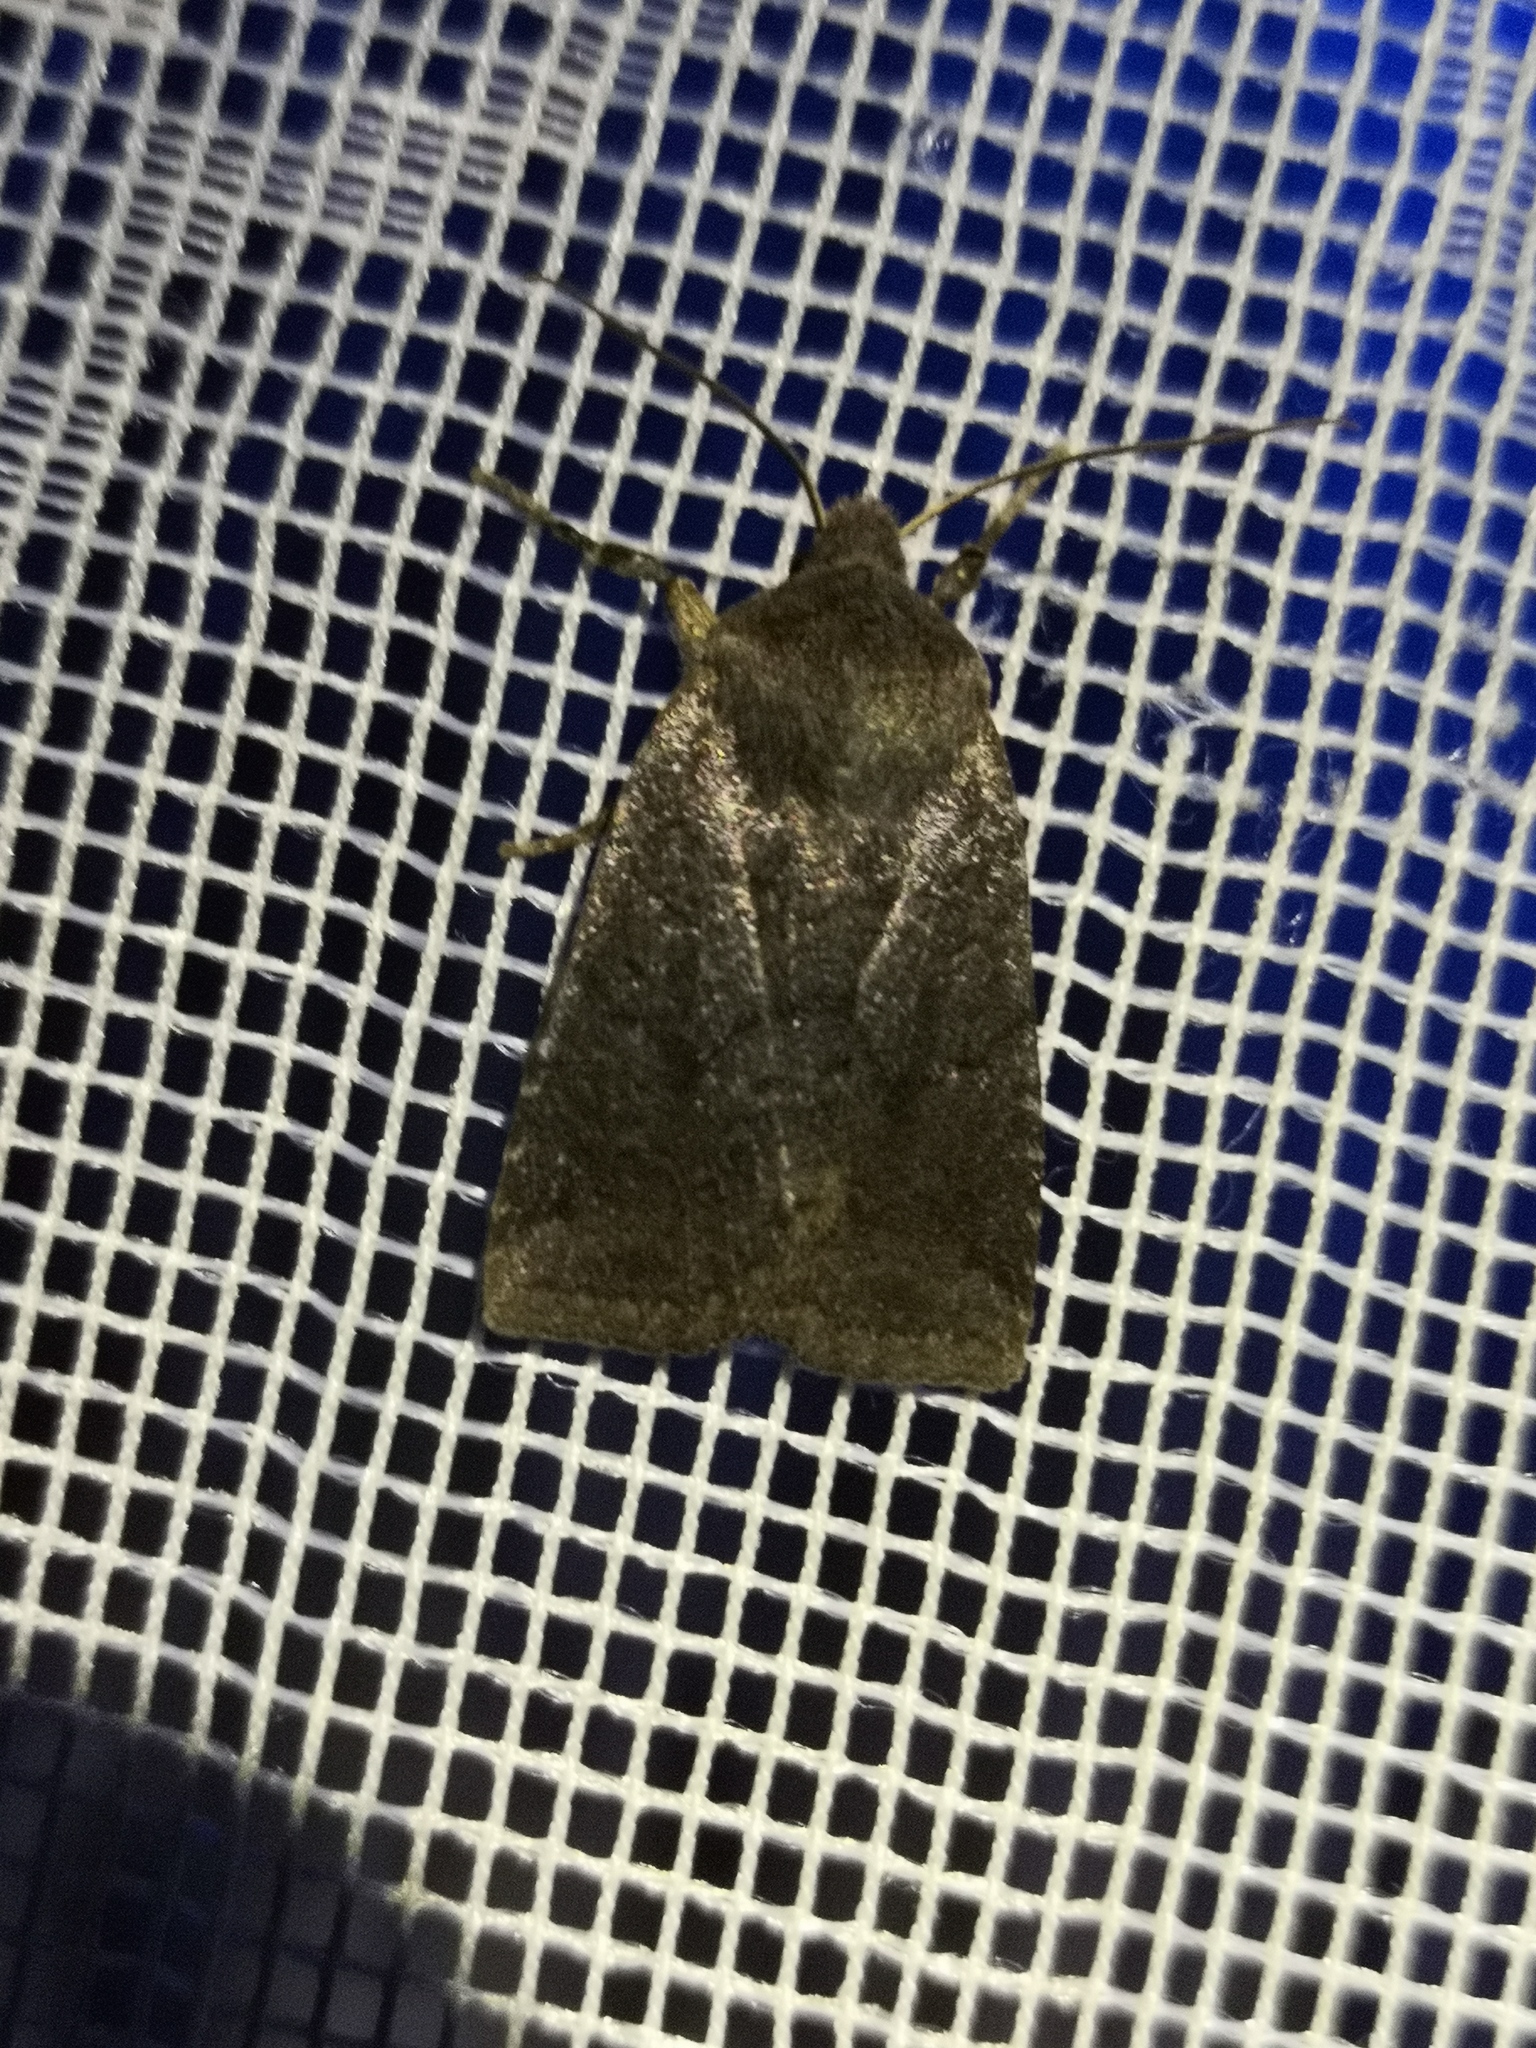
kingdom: Animalia
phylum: Arthropoda
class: Insecta
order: Lepidoptera
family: Noctuidae
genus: Conistra
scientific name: Conistra ligula
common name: Dark chestnut
